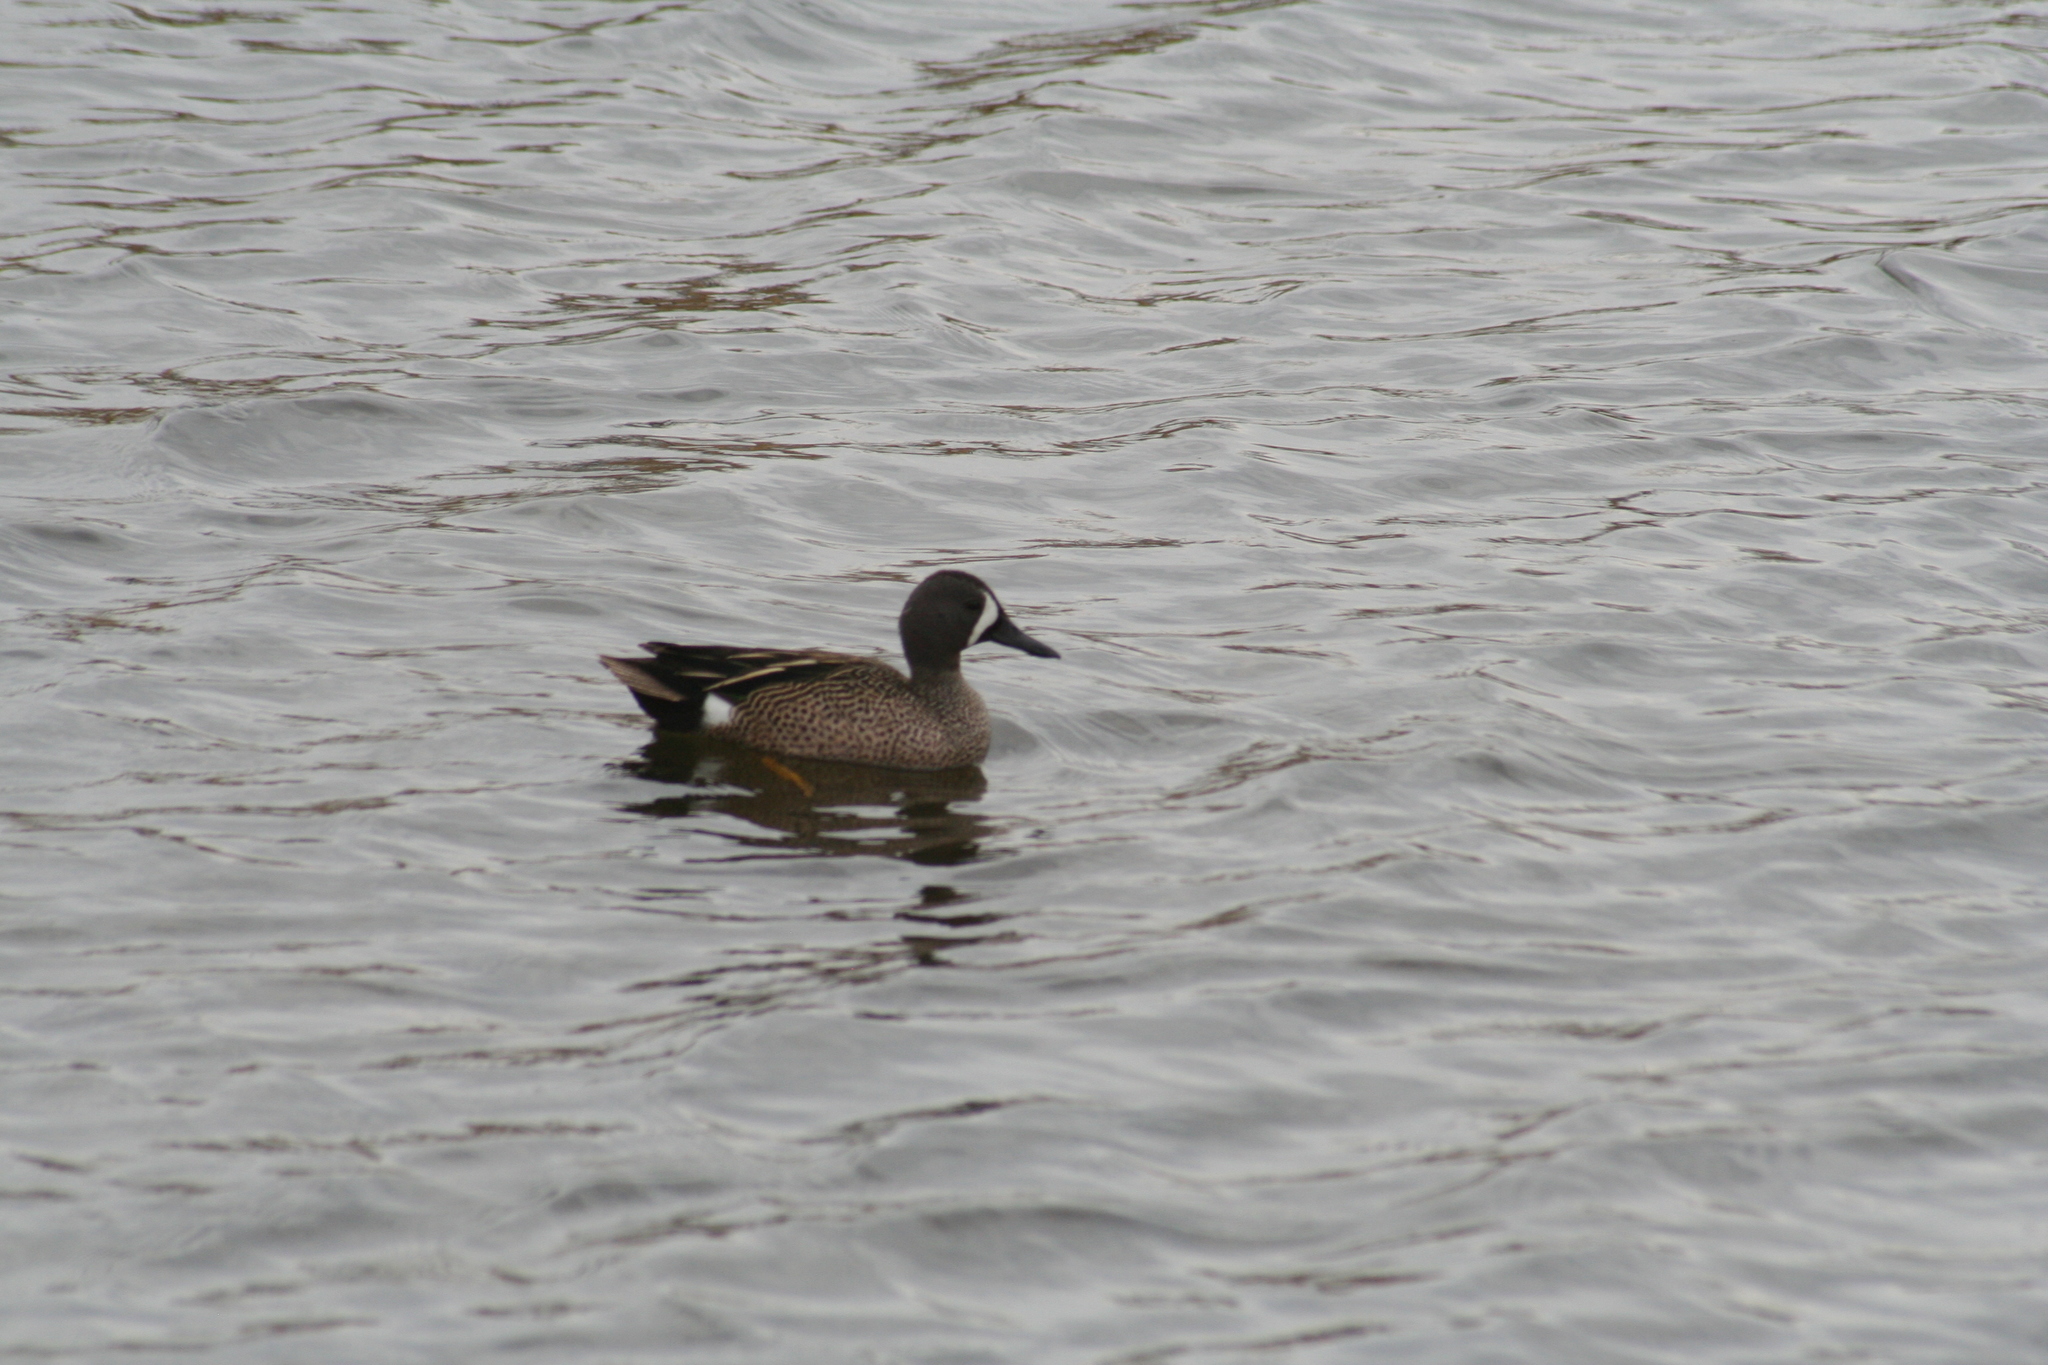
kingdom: Animalia
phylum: Chordata
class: Aves
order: Anseriformes
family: Anatidae
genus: Spatula
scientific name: Spatula discors
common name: Blue-winged teal
